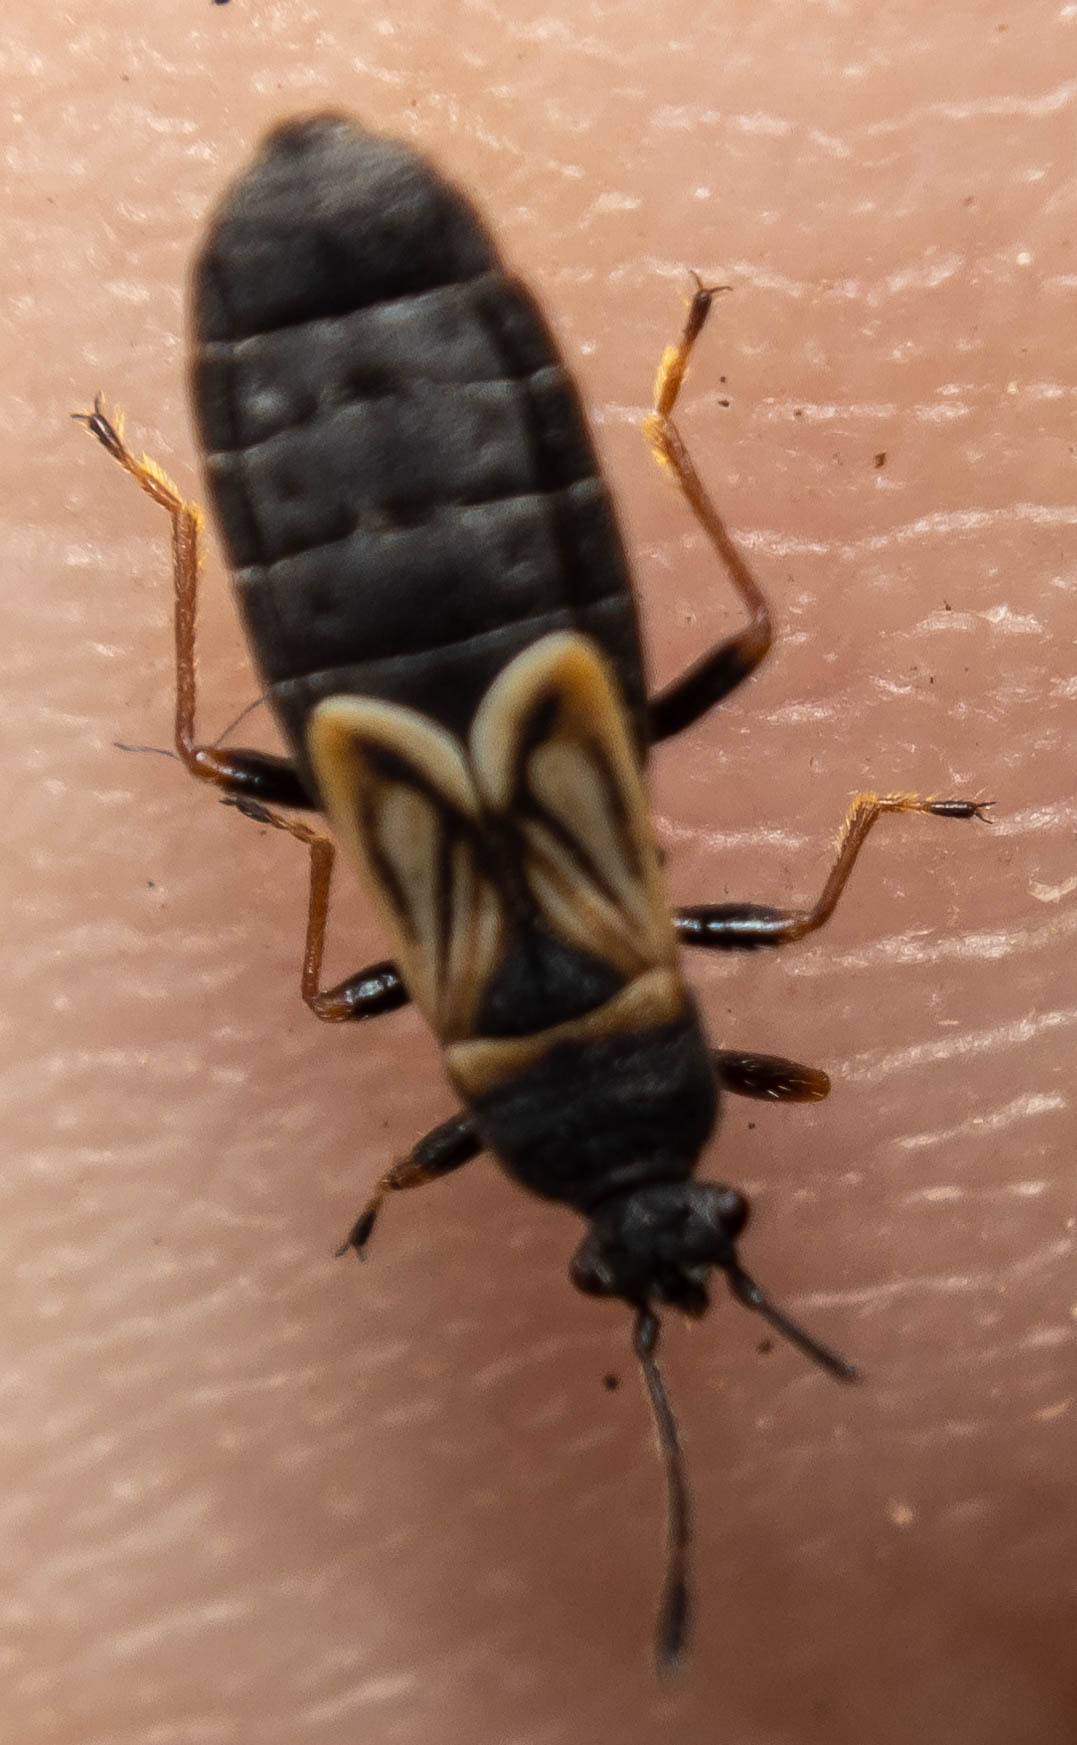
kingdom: Animalia
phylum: Arthropoda
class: Insecta
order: Hemiptera
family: Blissidae
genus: Ischnodemus
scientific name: Ischnodemus sabuleti
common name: European cinchbug
